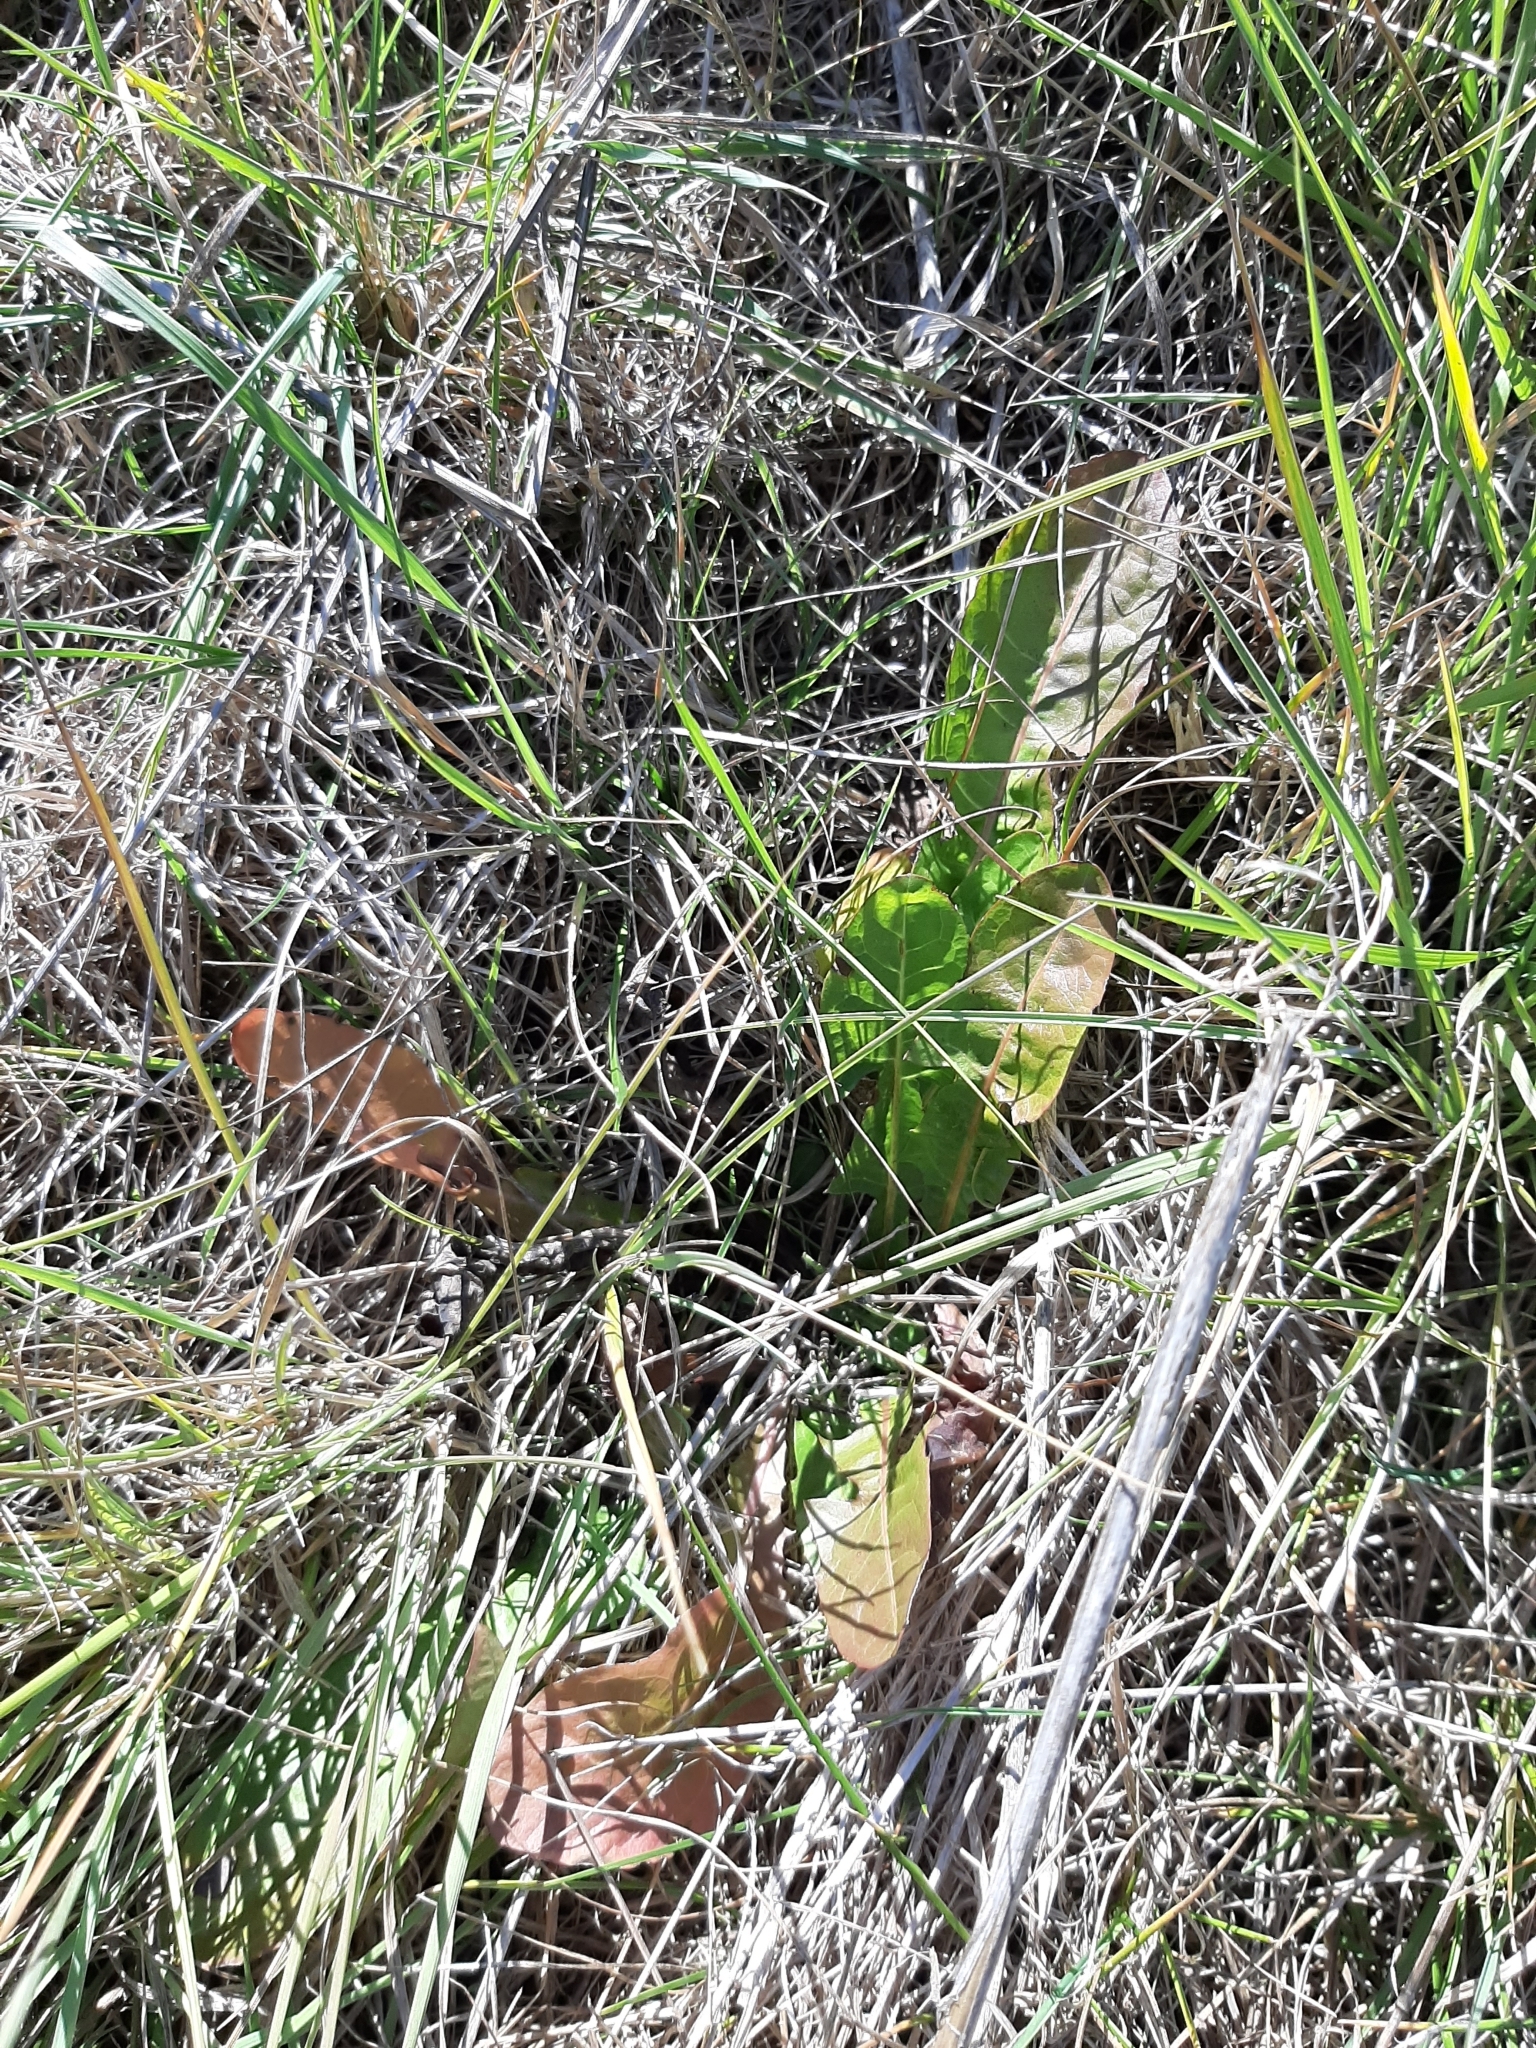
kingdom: Plantae
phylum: Tracheophyta
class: Magnoliopsida
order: Asterales
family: Asteraceae
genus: Taraxacum
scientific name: Taraxacum officinale
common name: Common dandelion
